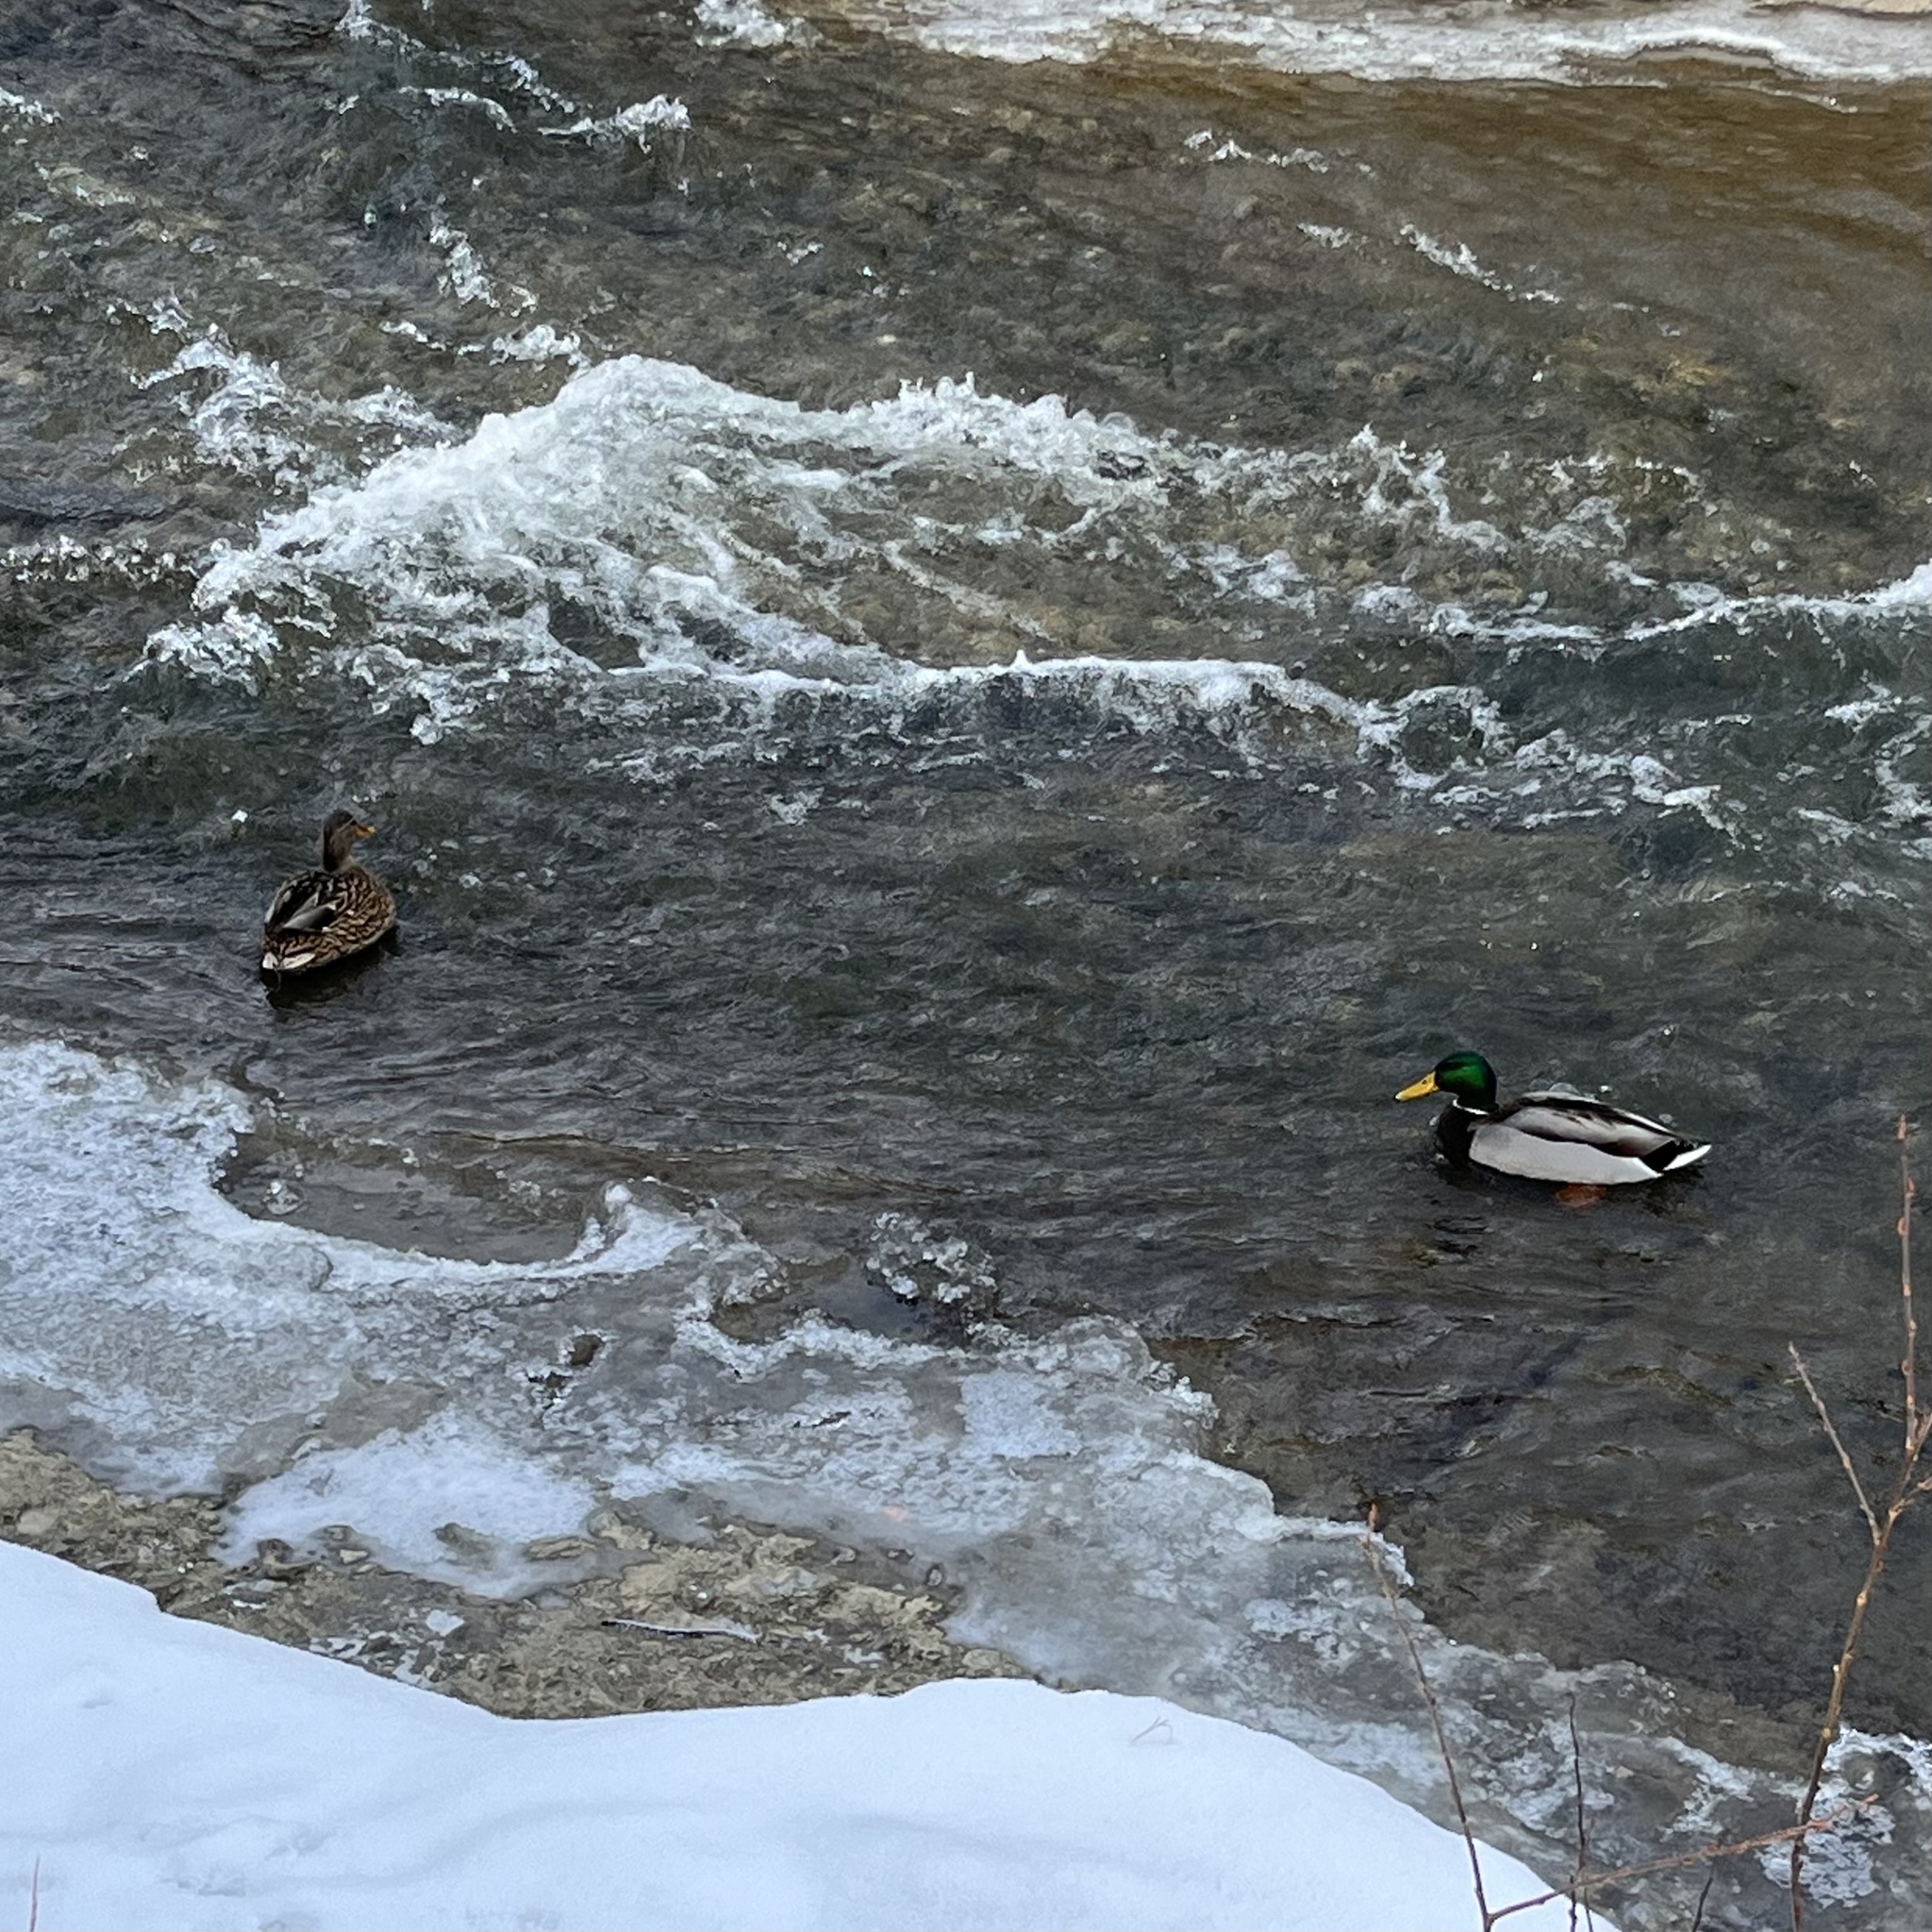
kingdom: Animalia
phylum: Chordata
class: Aves
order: Anseriformes
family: Anatidae
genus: Anas
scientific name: Anas platyrhynchos
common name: Mallard
